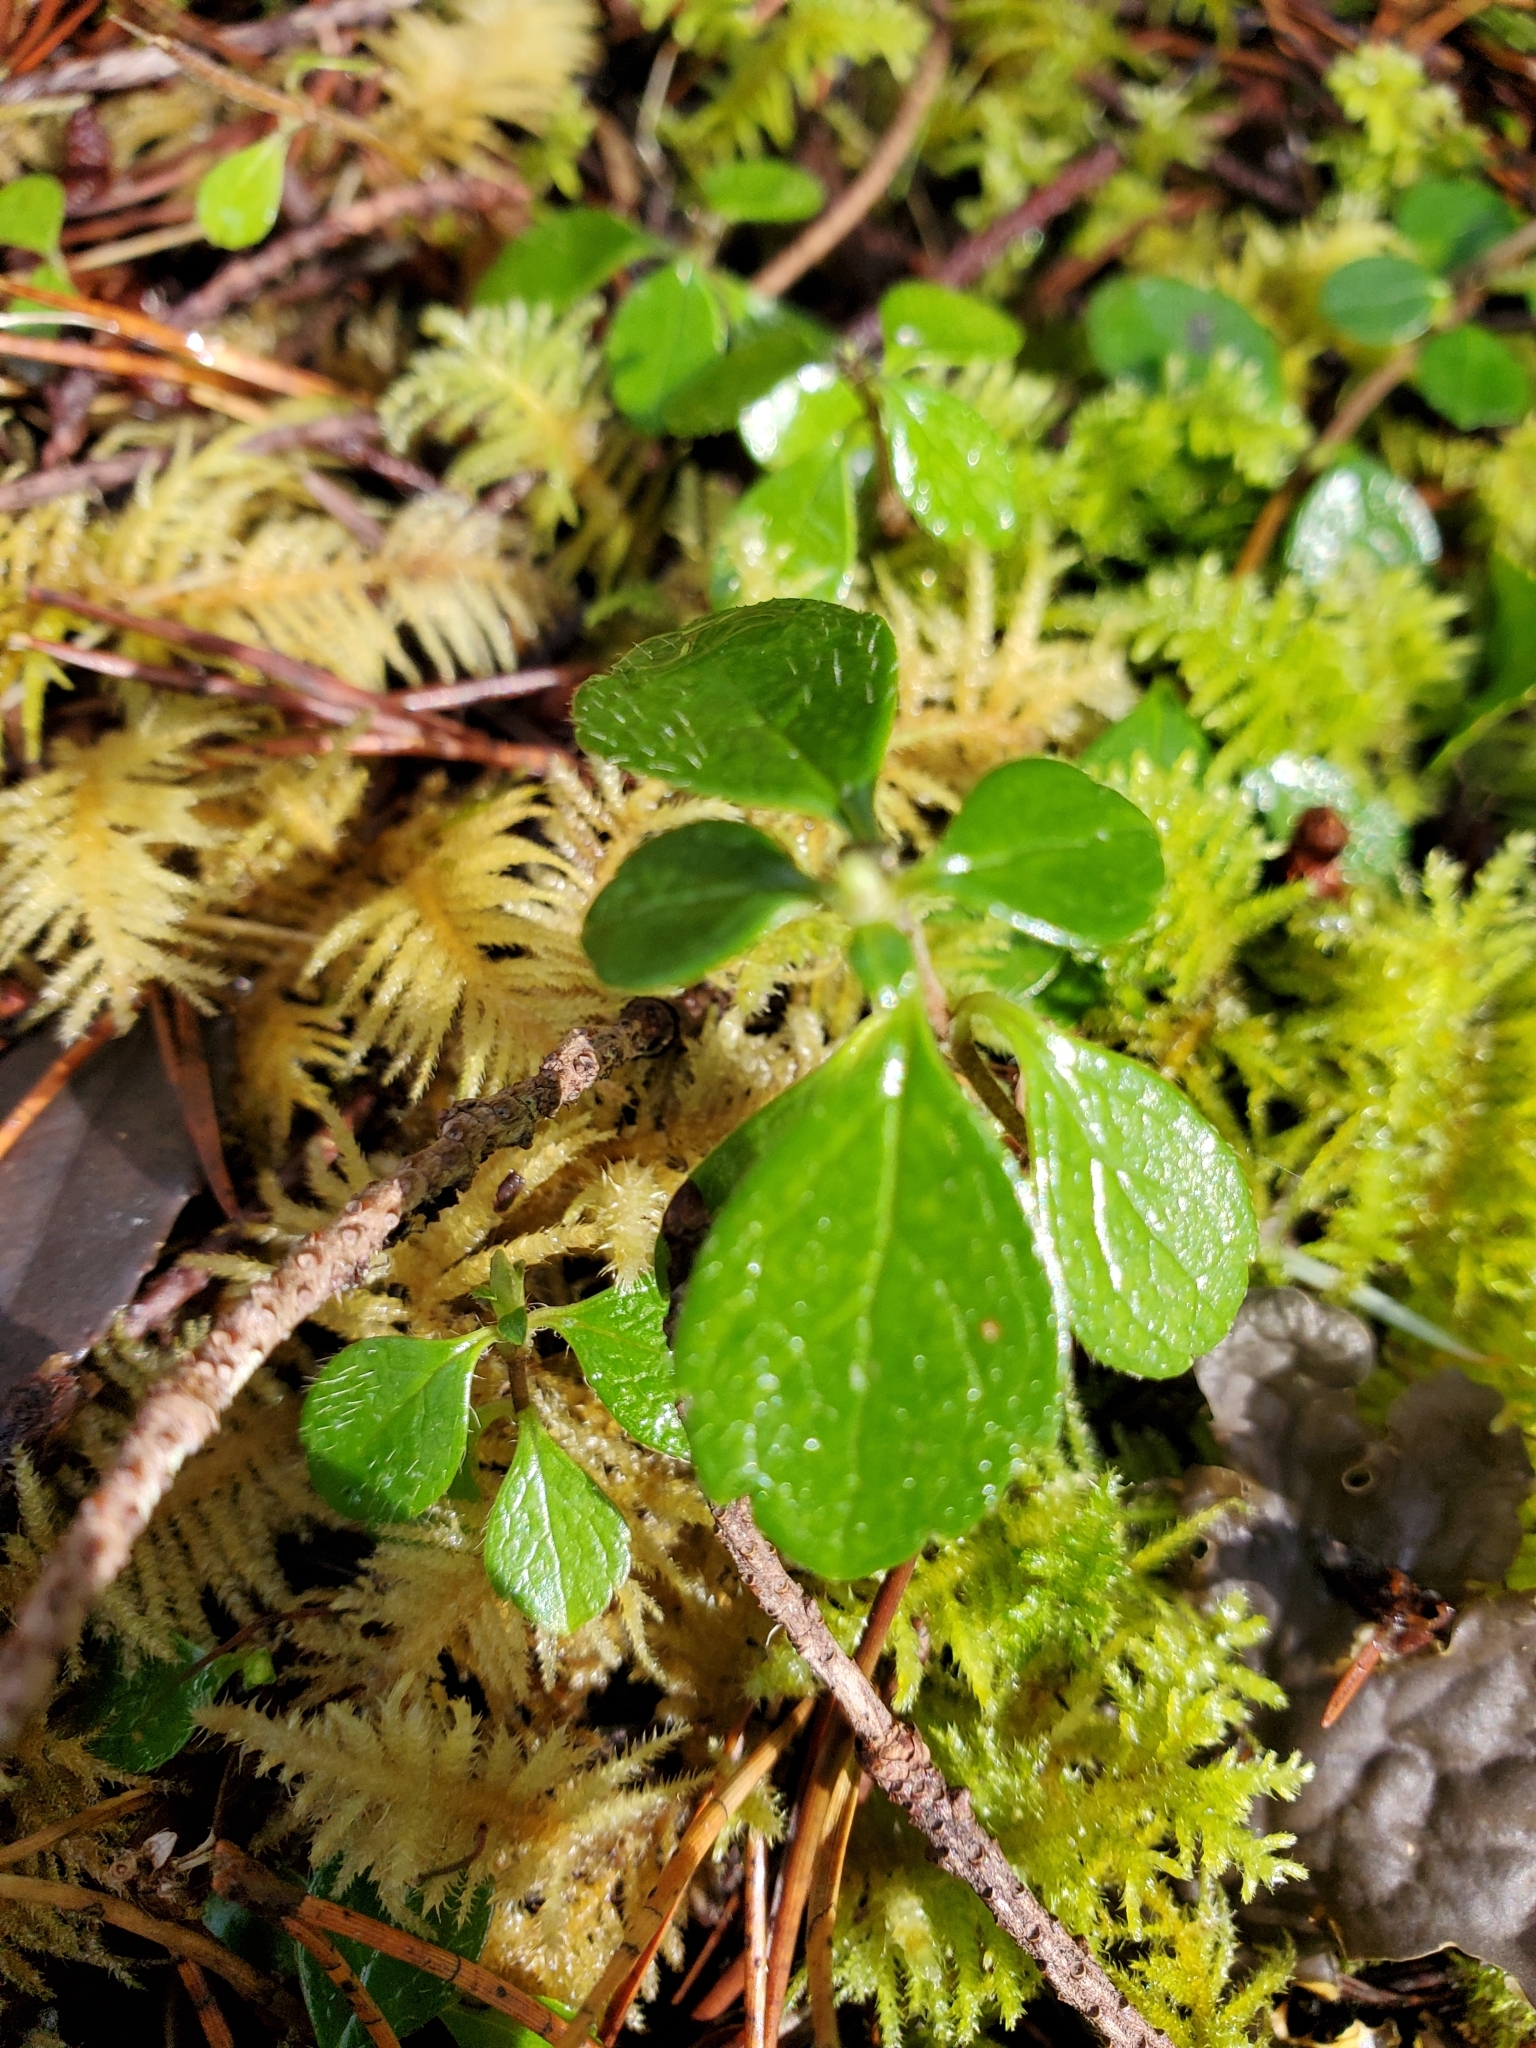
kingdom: Plantae
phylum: Tracheophyta
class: Magnoliopsida
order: Dipsacales
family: Caprifoliaceae
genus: Linnaea
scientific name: Linnaea borealis
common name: Twinflower
